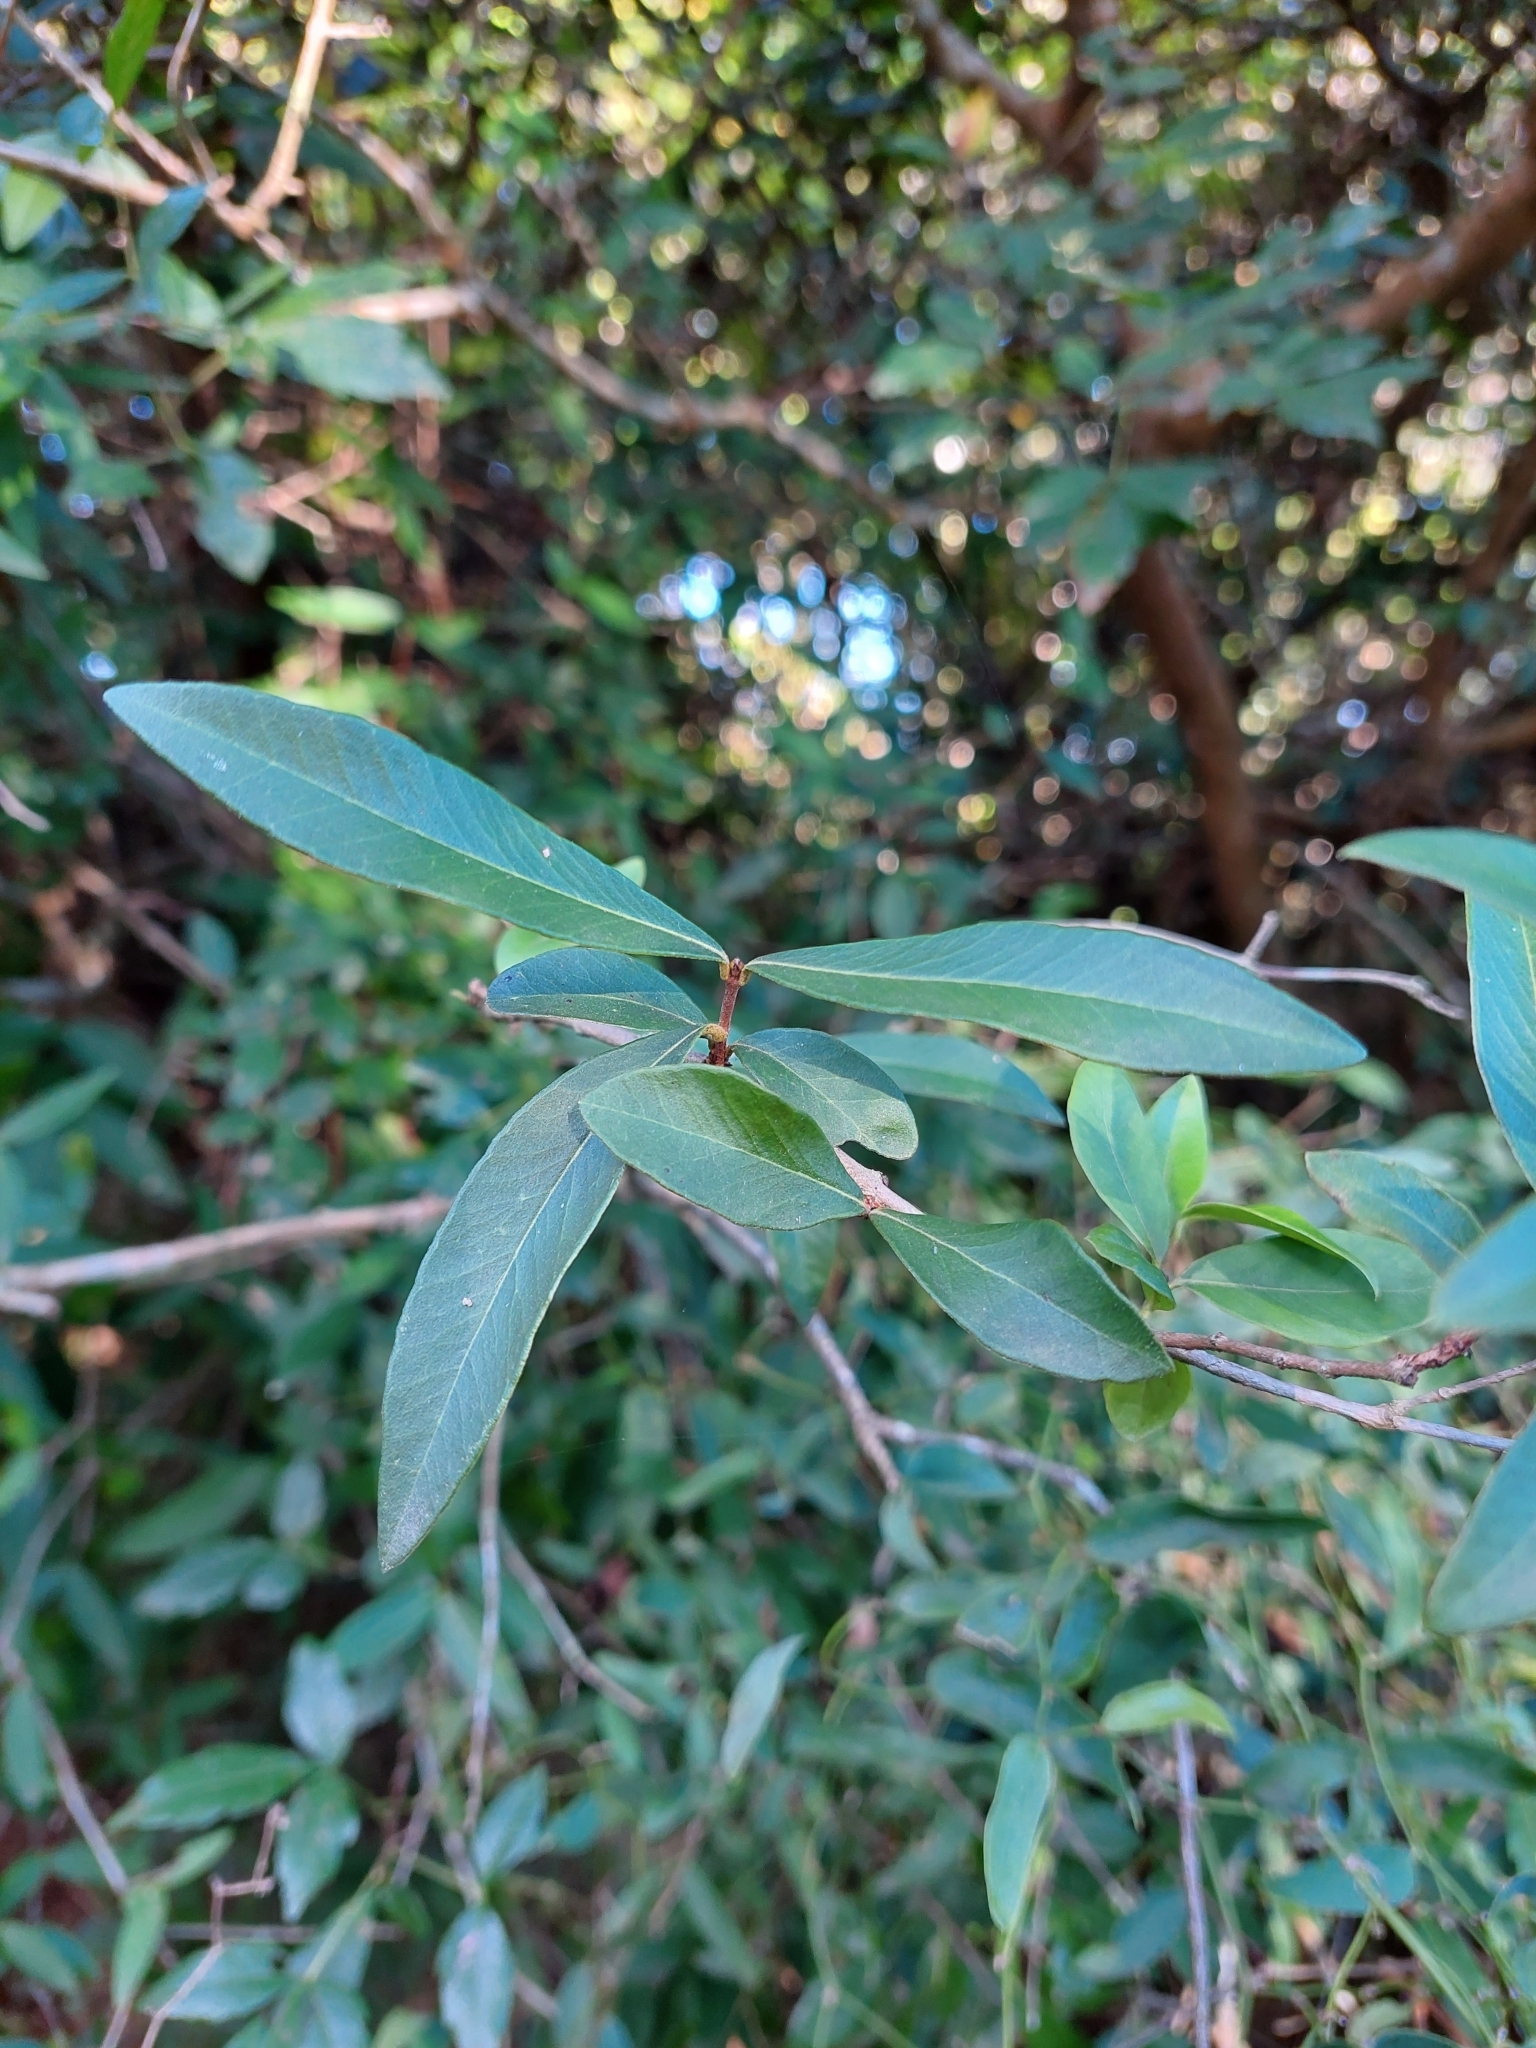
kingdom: Plantae
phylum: Tracheophyta
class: Magnoliopsida
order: Myrtales
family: Myrtaceae
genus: Myrrhinium
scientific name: Myrrhinium atropurpureum
